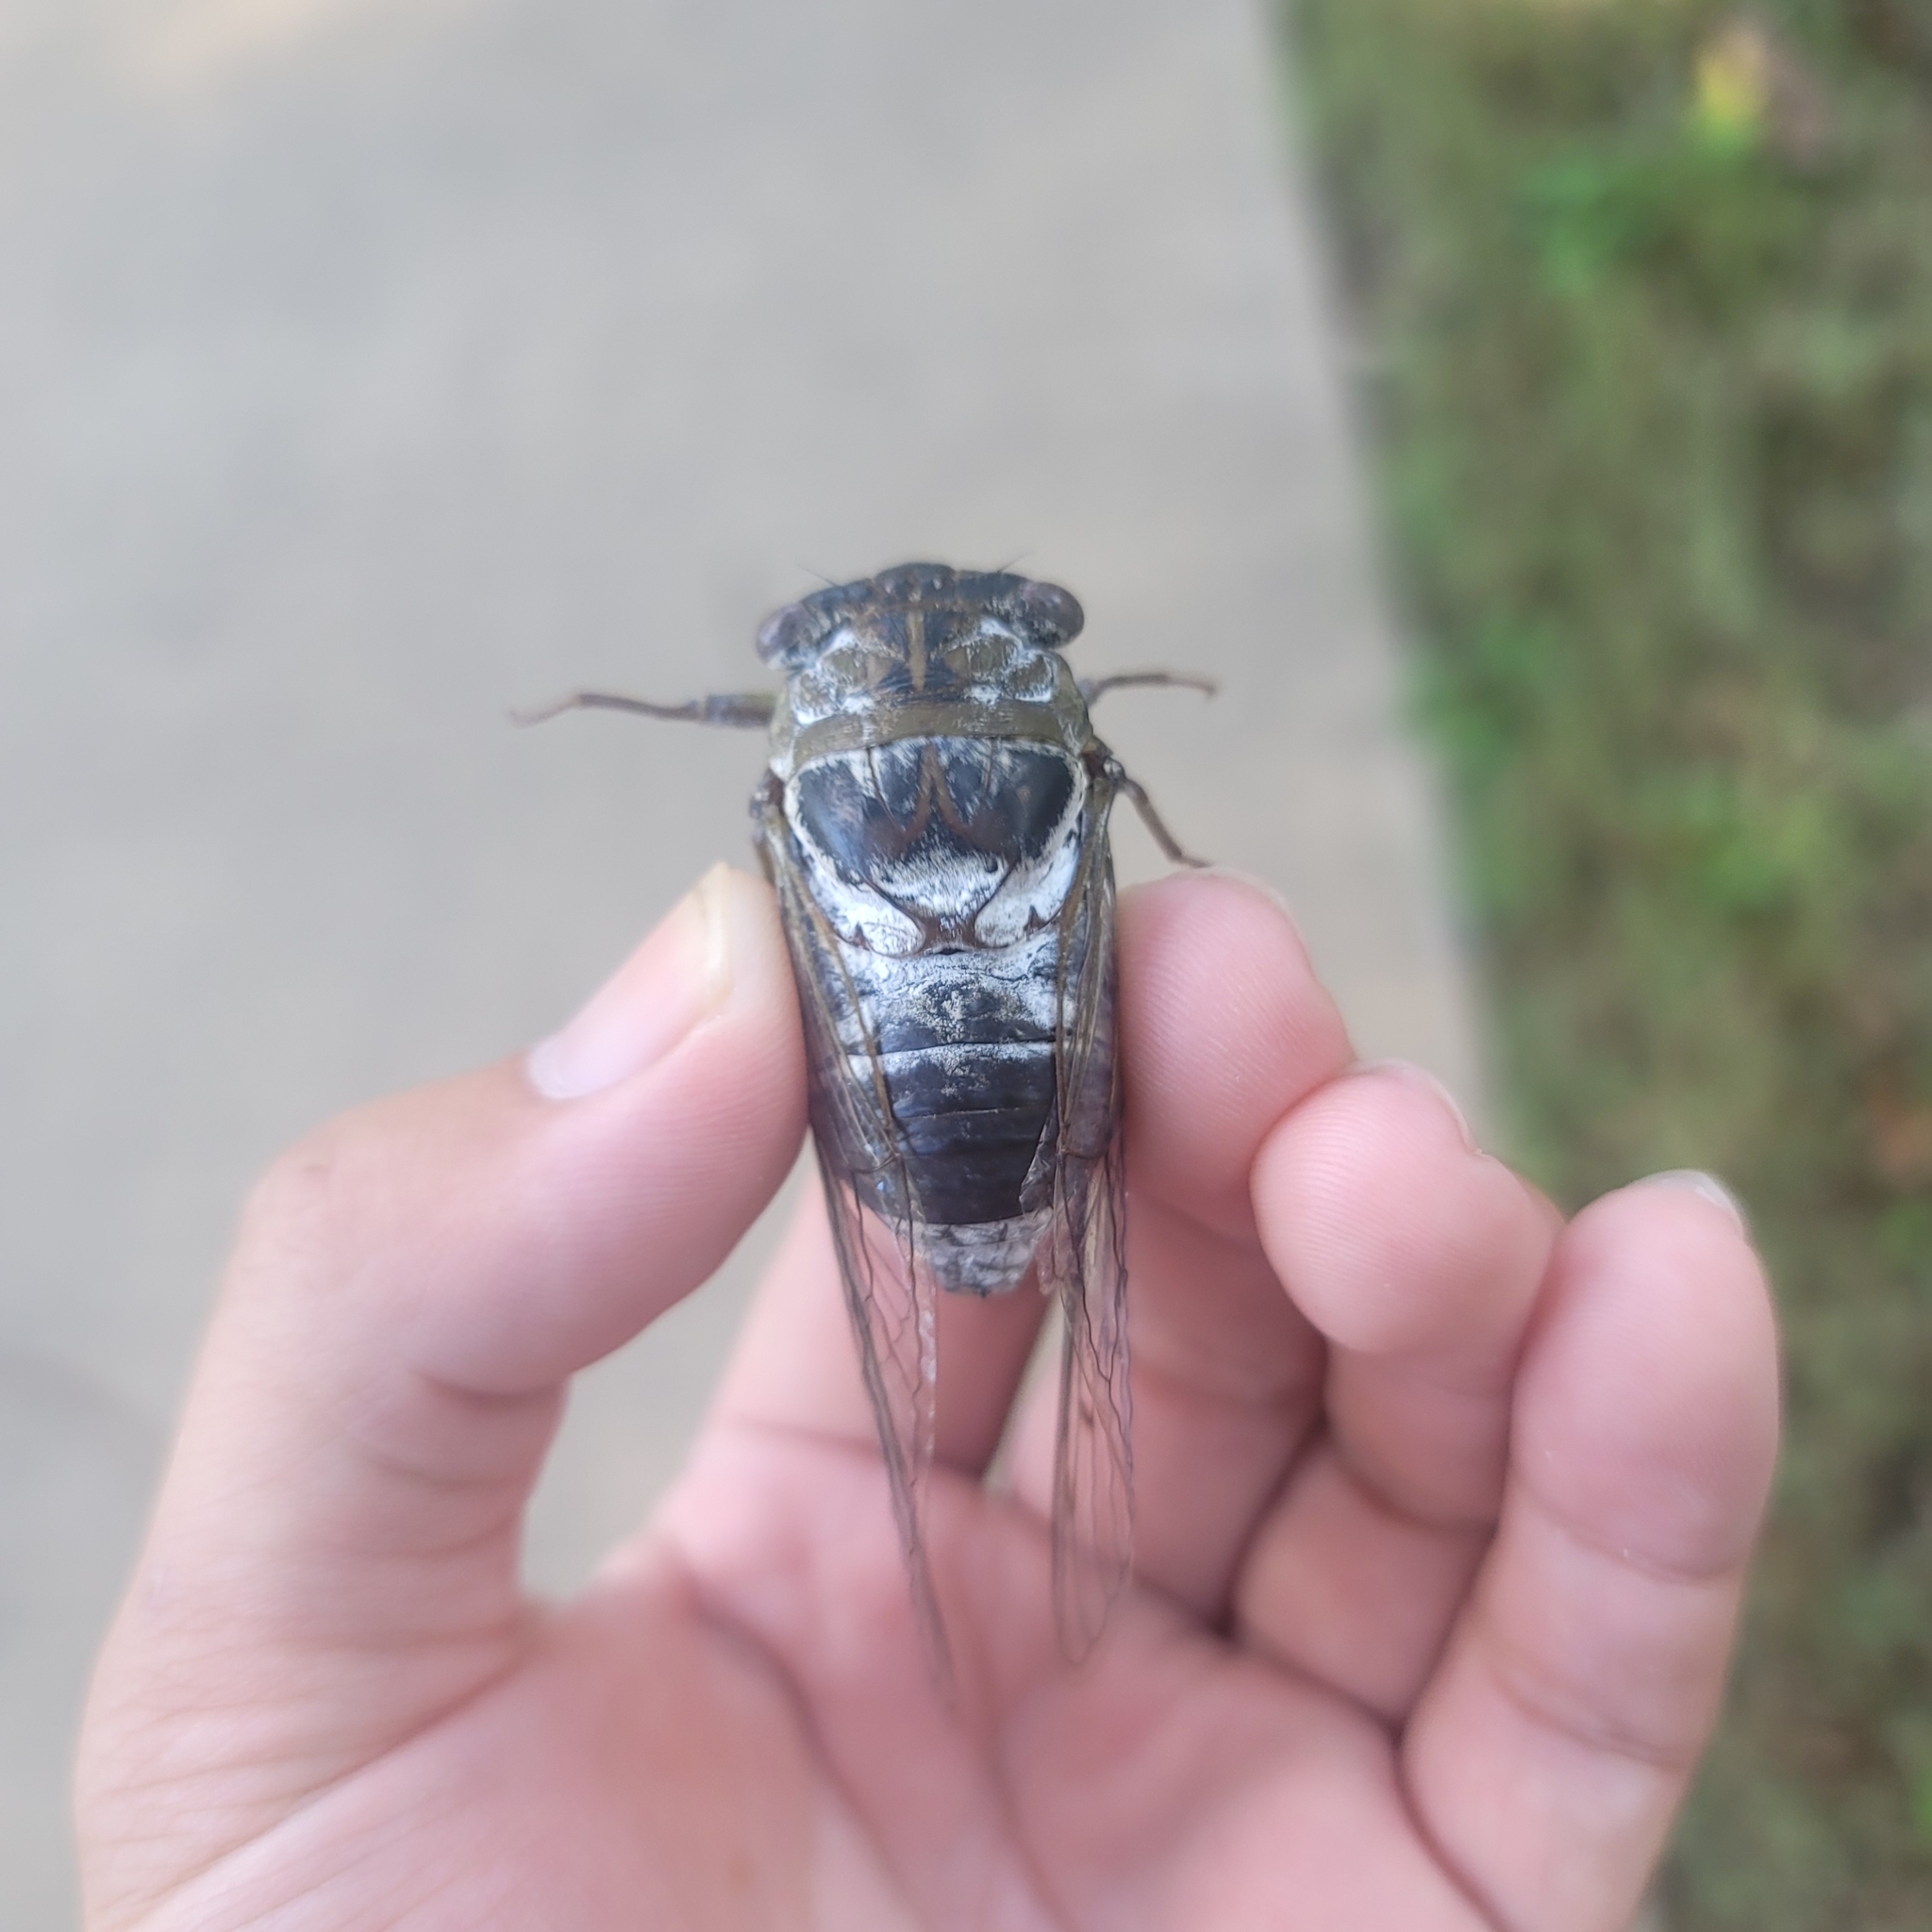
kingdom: Animalia
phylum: Arthropoda
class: Insecta
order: Hemiptera
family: Cicadidae
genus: Diceroprocta
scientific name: Diceroprocta grossa
